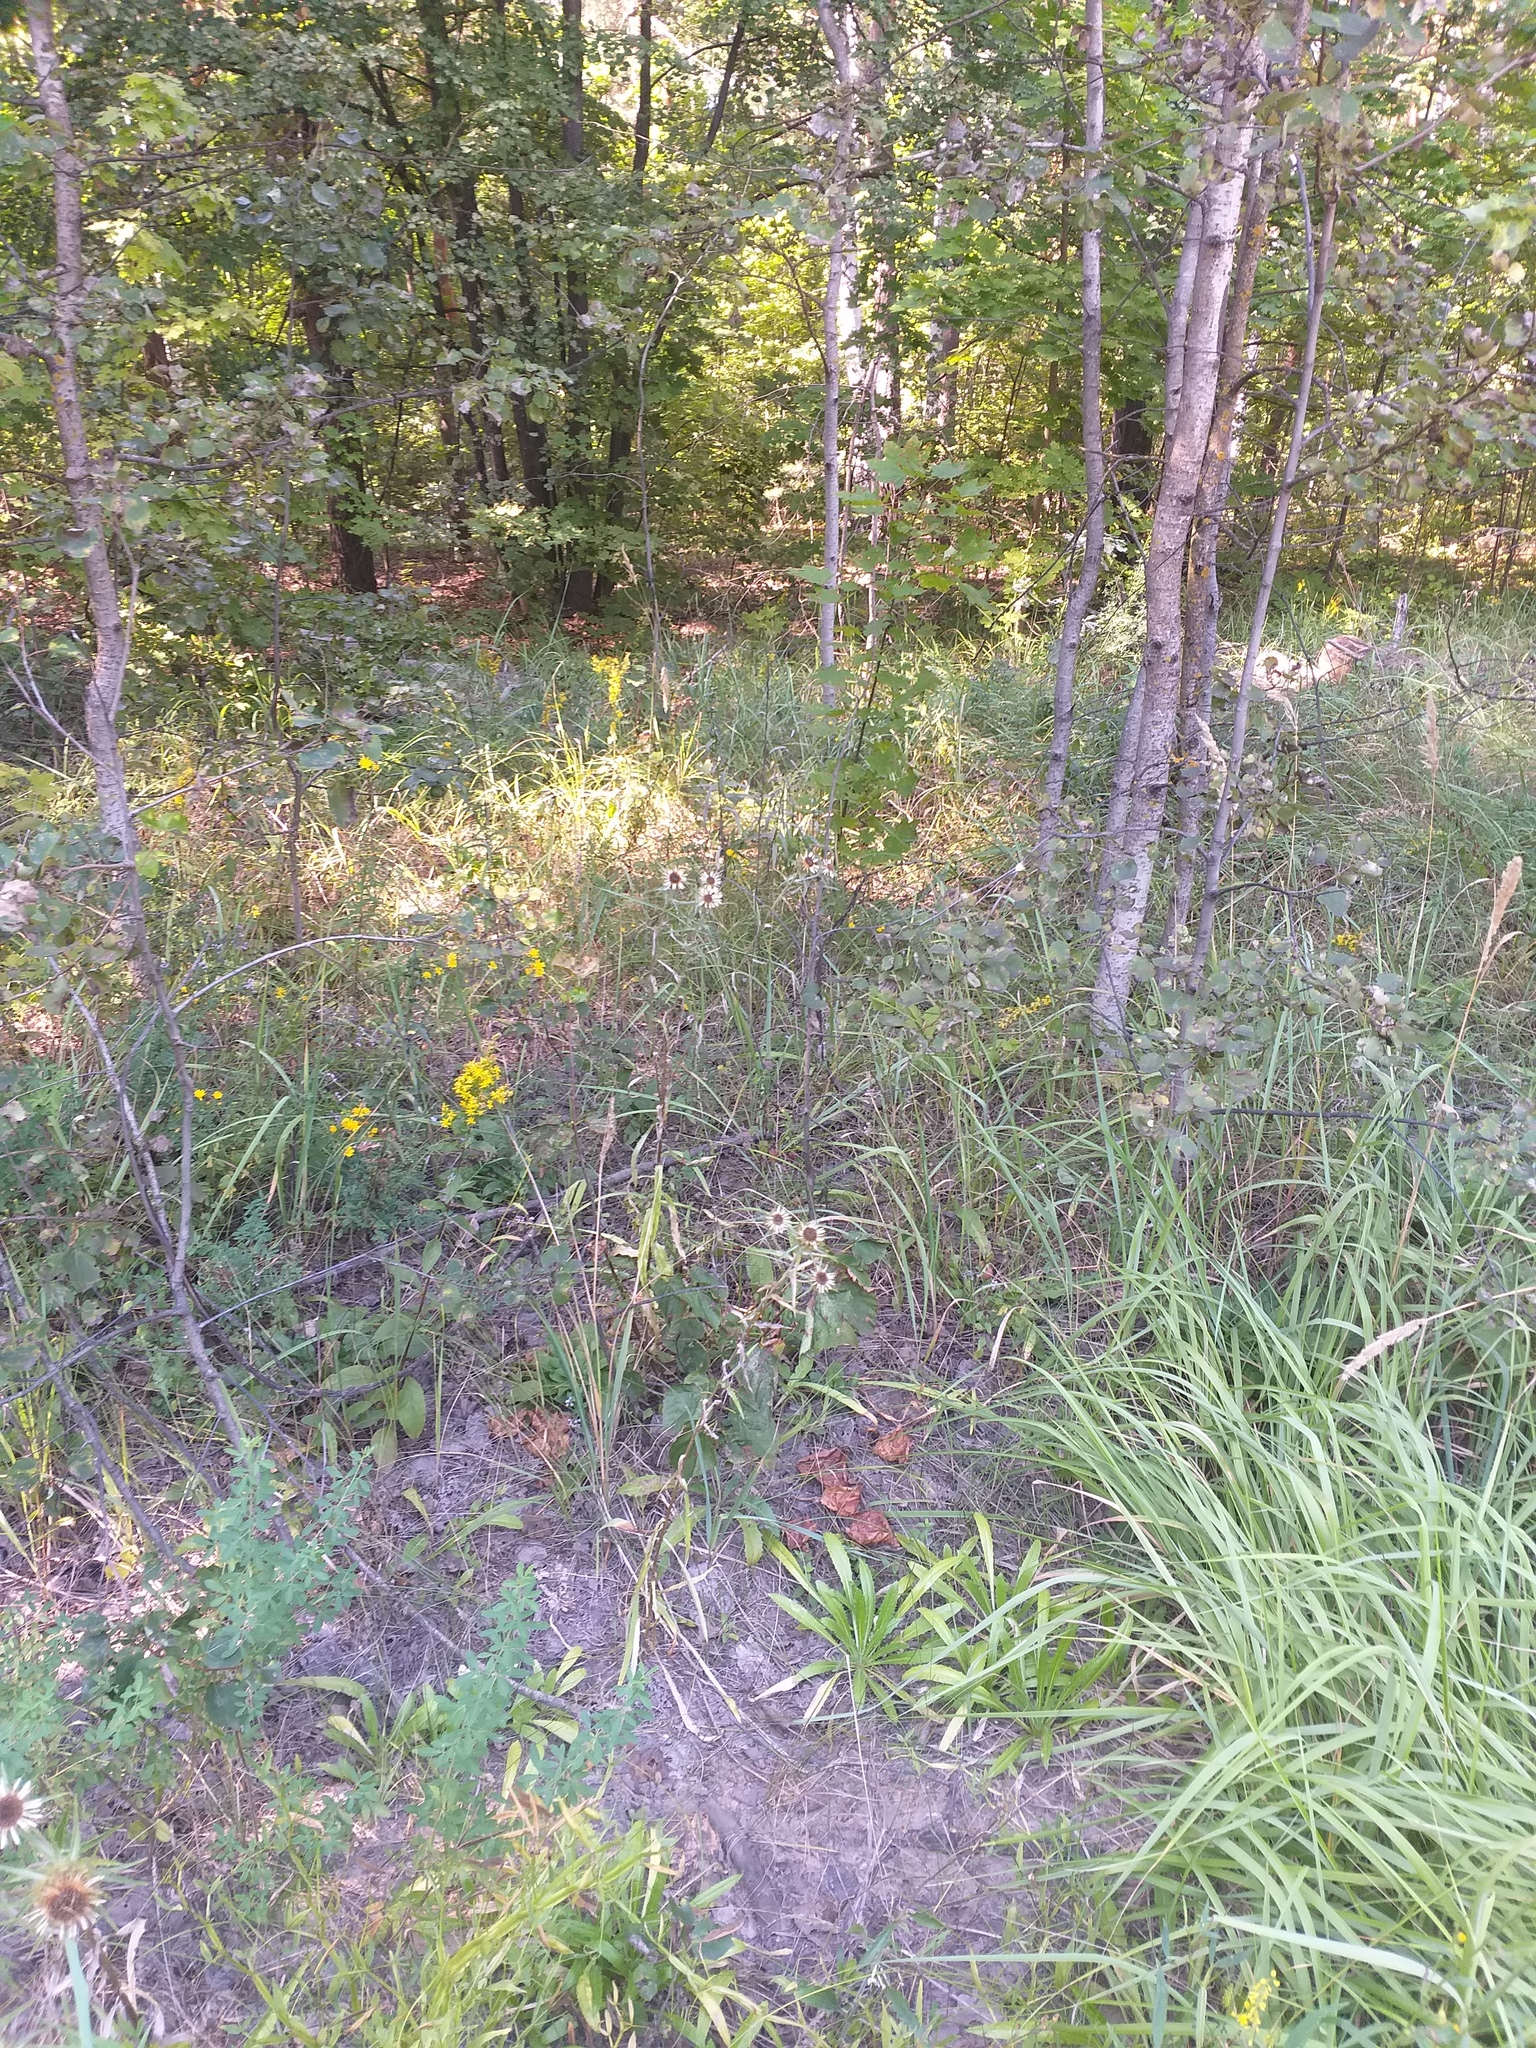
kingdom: Plantae
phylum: Tracheophyta
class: Magnoliopsida
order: Asterales
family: Asteraceae
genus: Carlina
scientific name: Carlina biebersteinii
